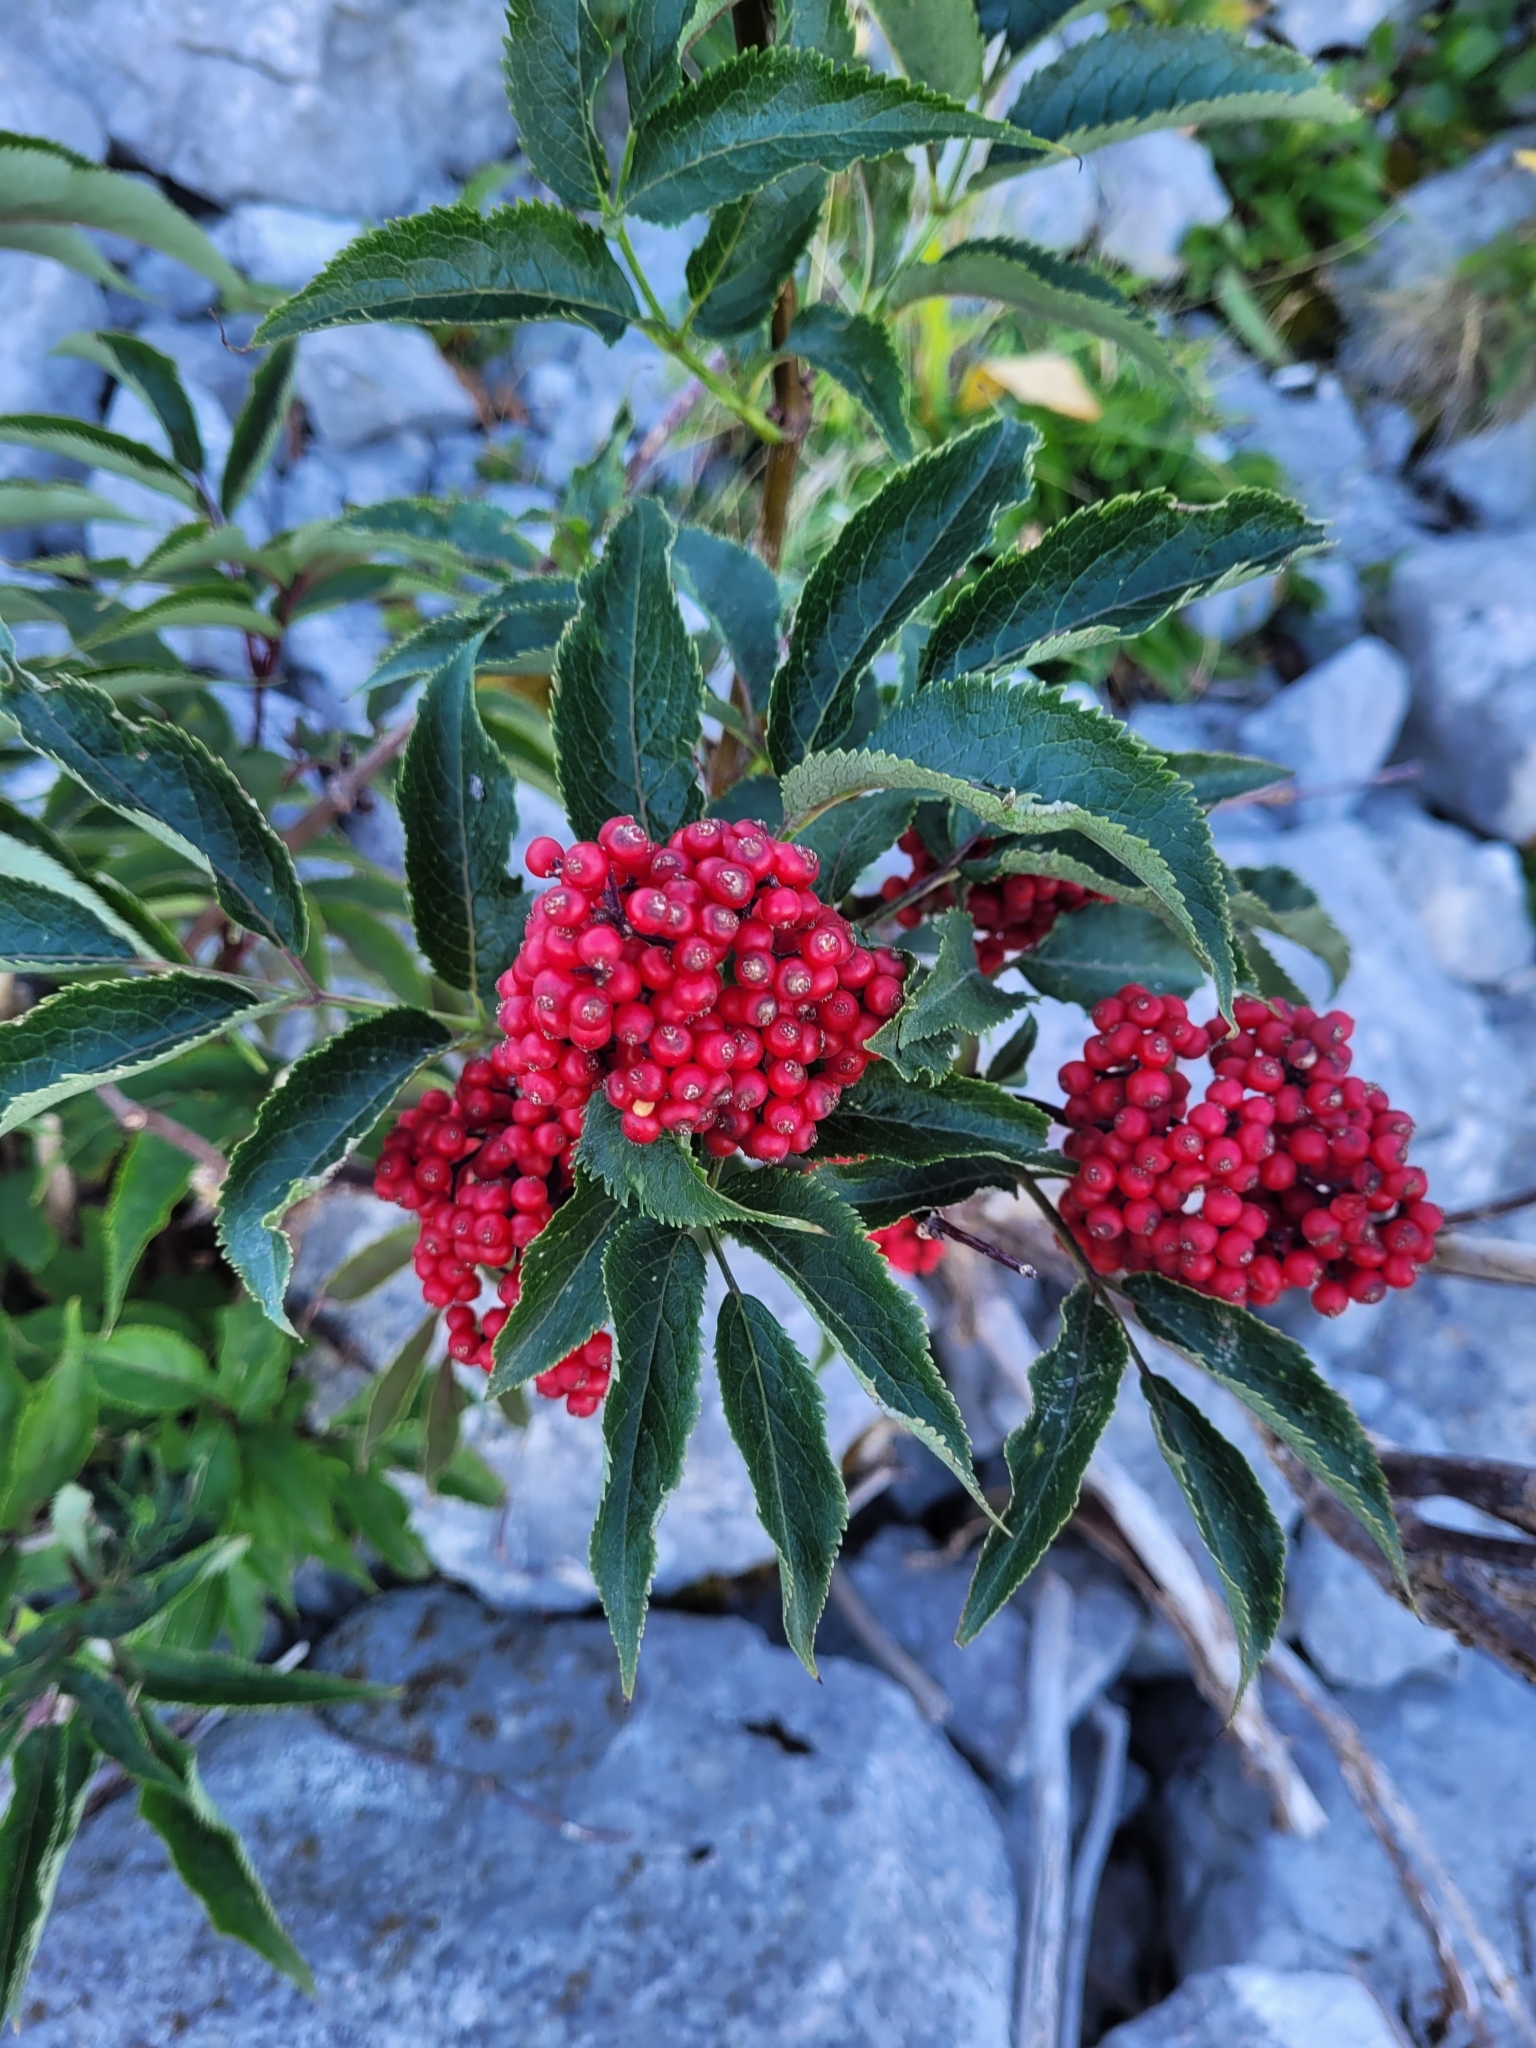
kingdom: Plantae
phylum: Tracheophyta
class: Magnoliopsida
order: Dipsacales
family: Viburnaceae
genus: Sambucus
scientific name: Sambucus racemosa
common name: Red-berried elder
